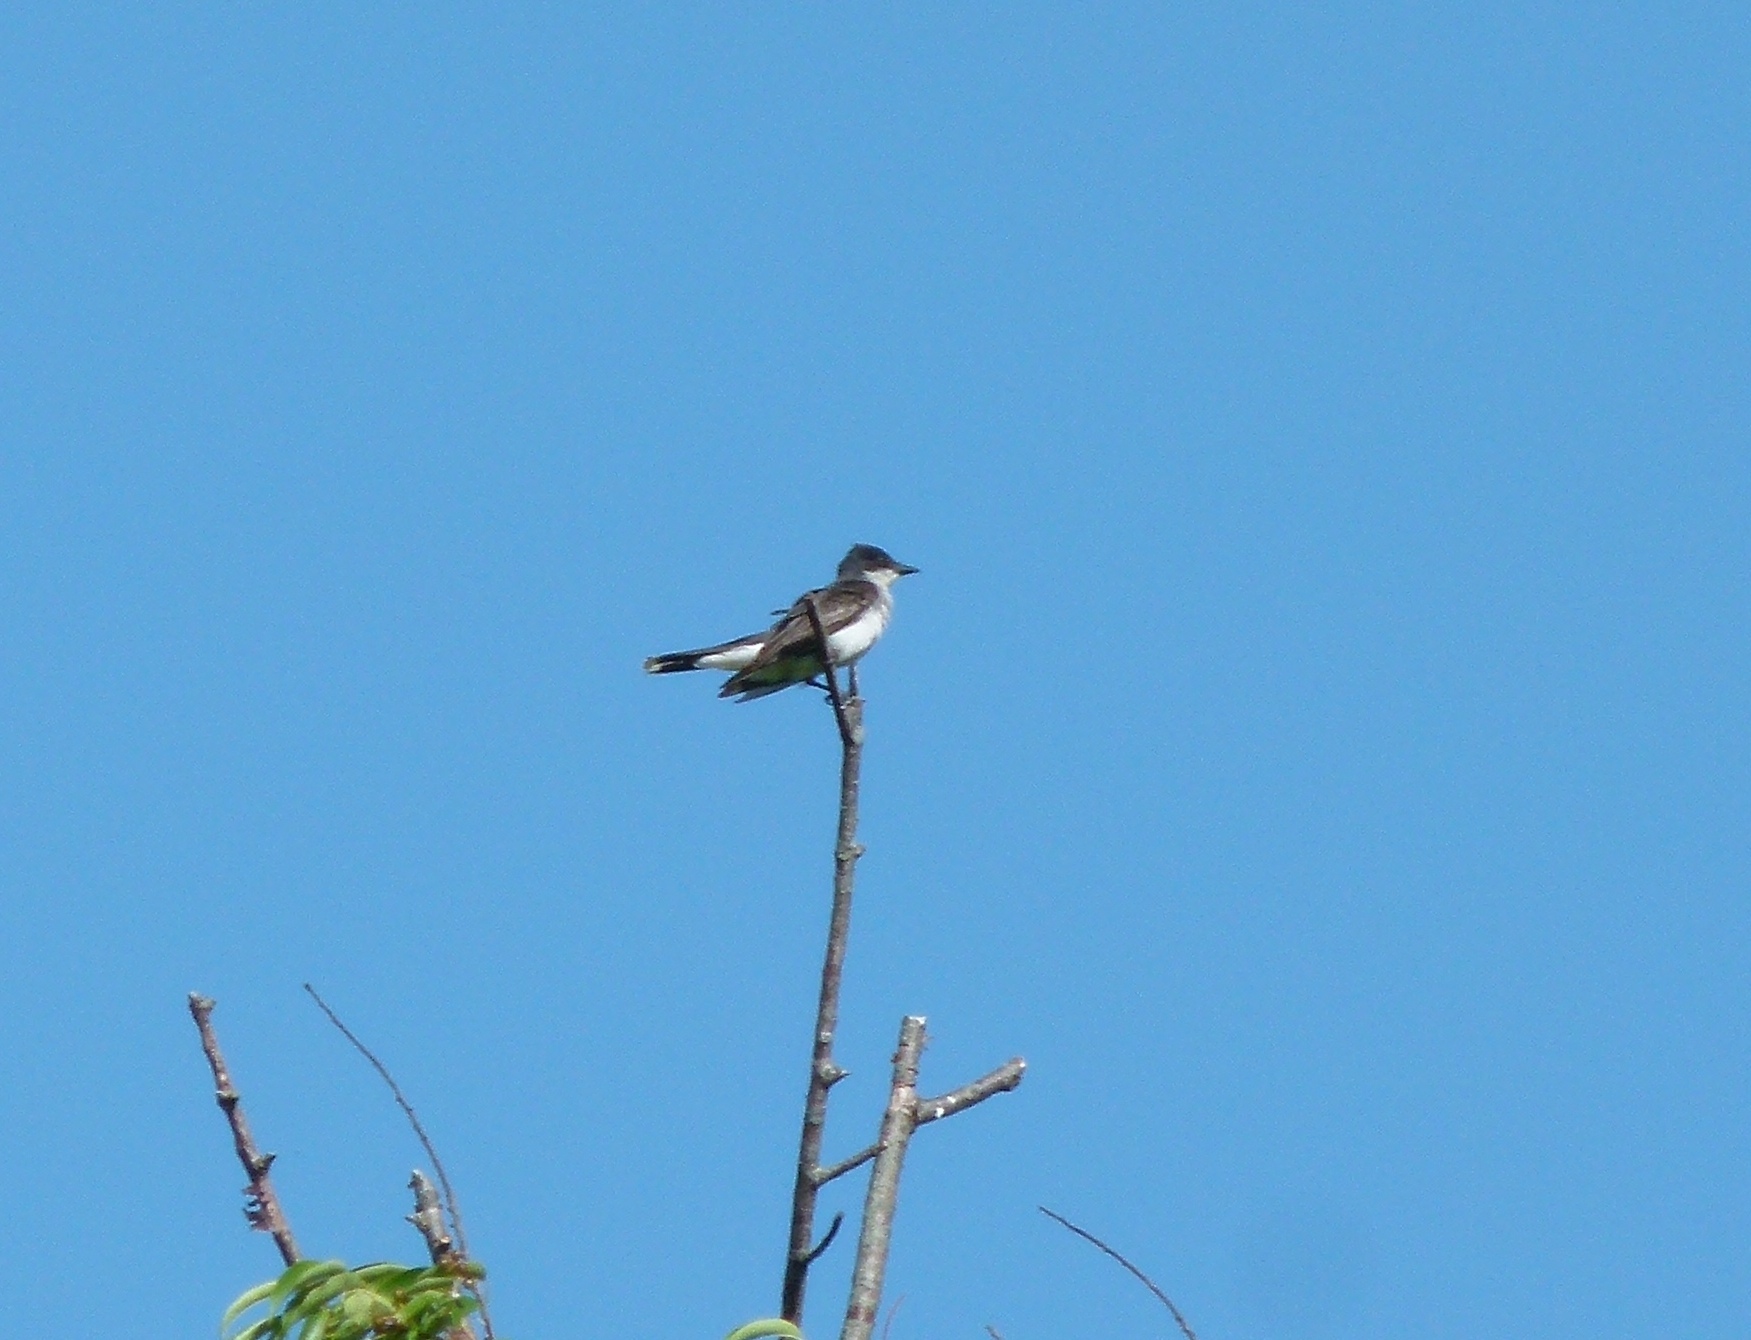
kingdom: Animalia
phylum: Chordata
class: Aves
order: Passeriformes
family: Tyrannidae
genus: Tyrannus
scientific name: Tyrannus tyrannus
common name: Eastern kingbird
